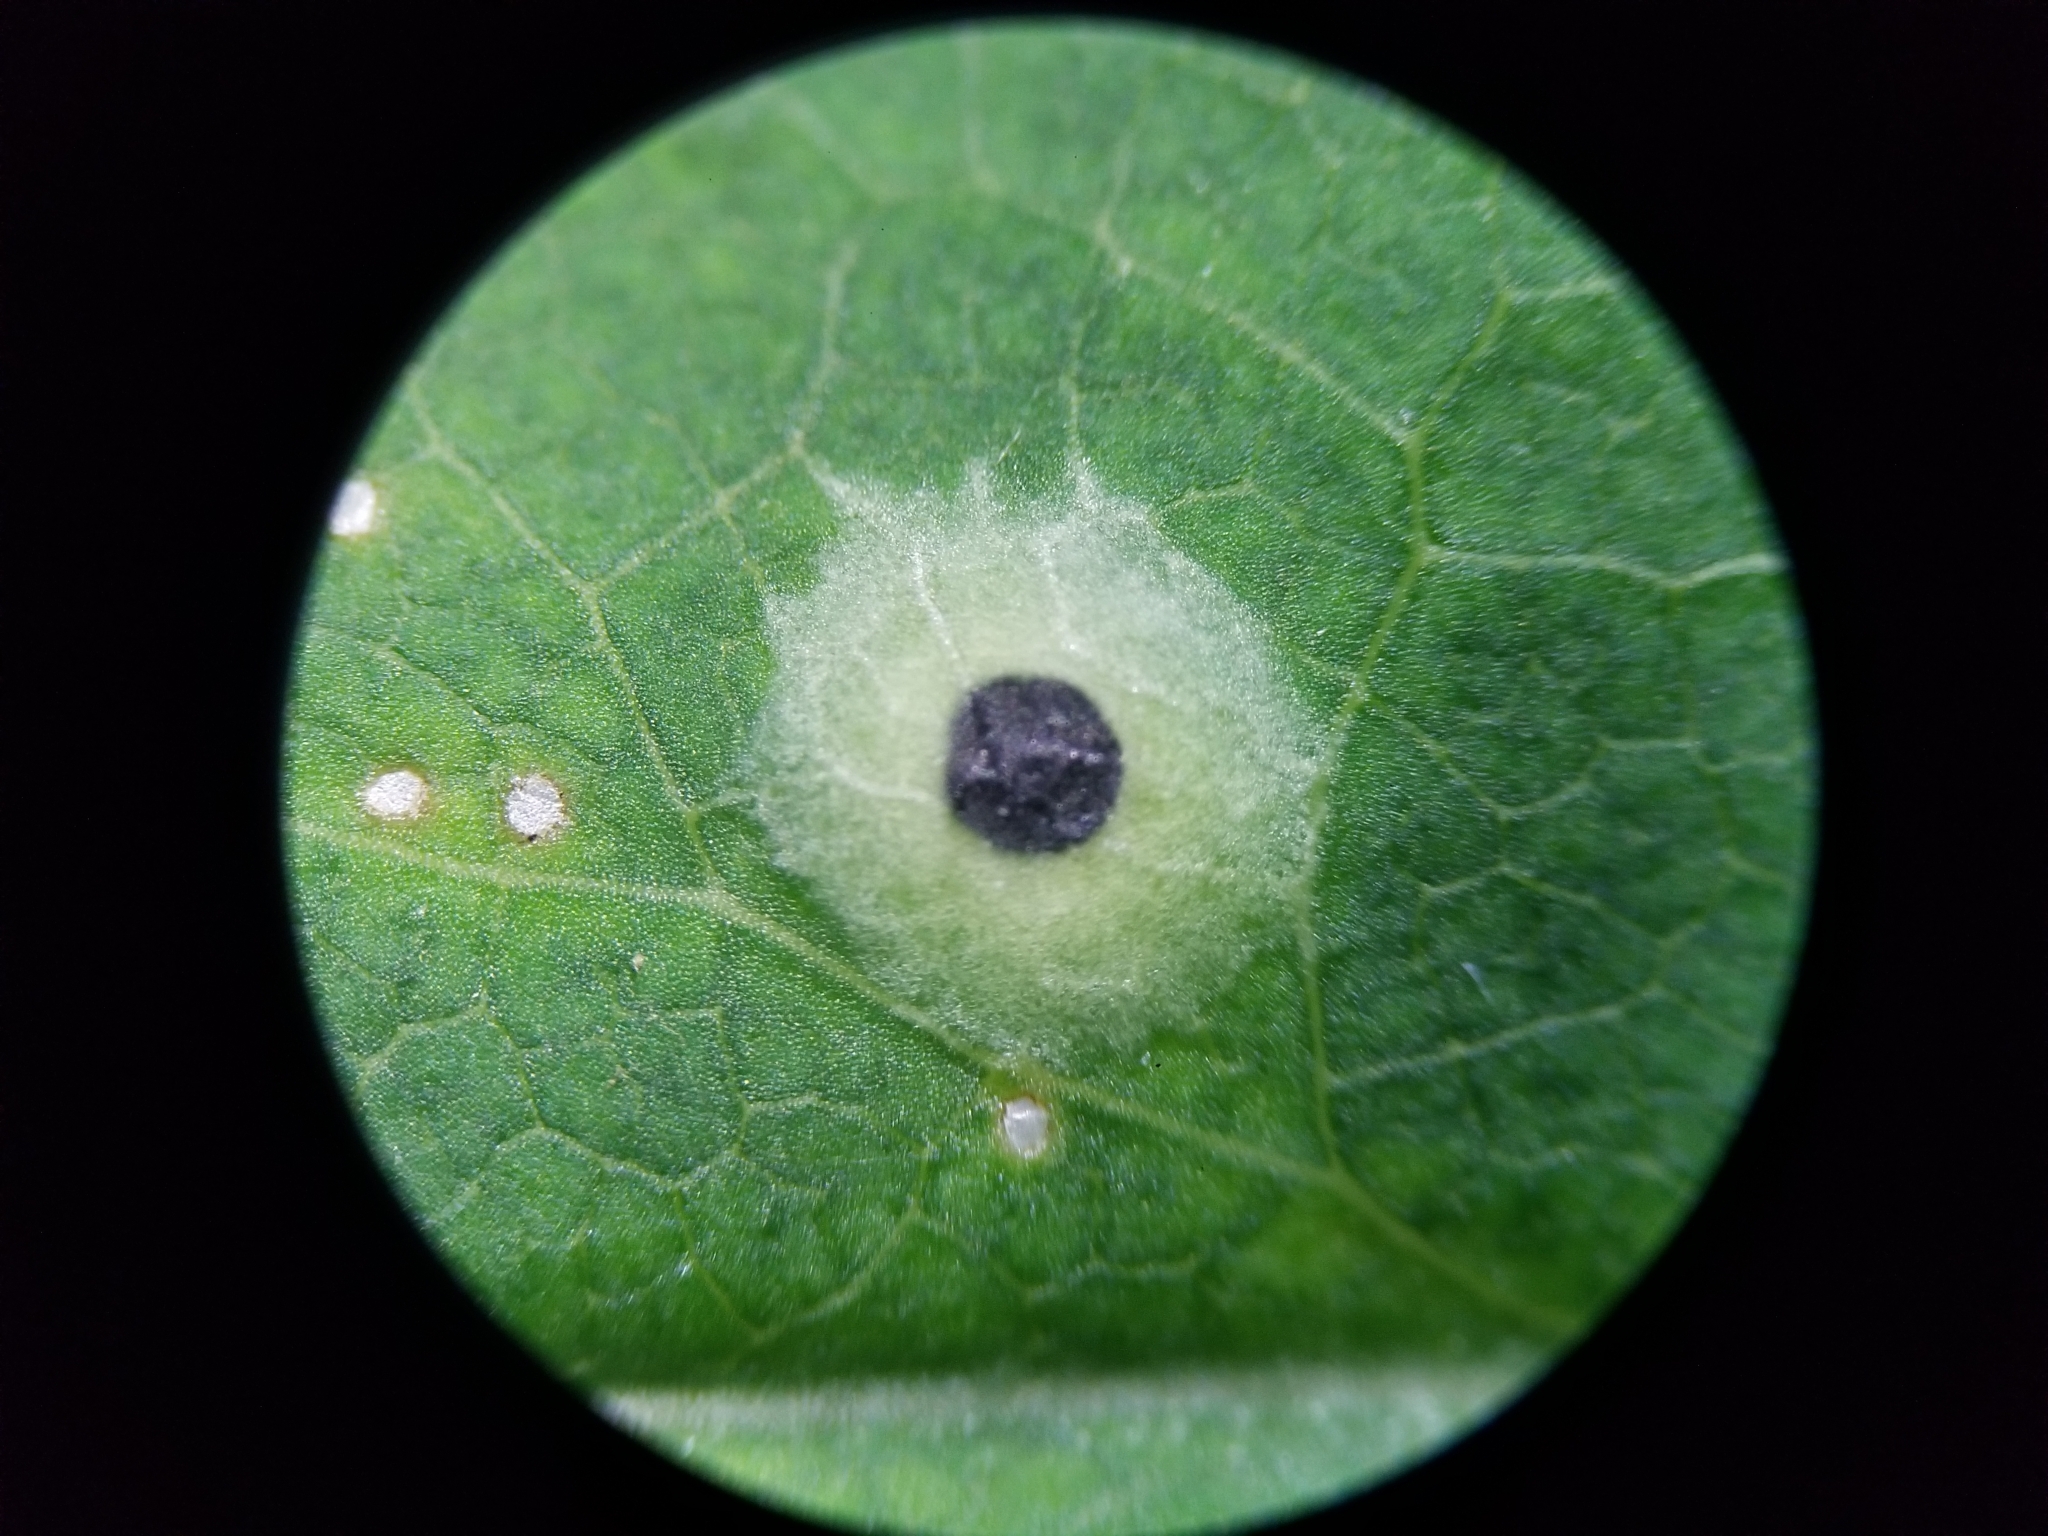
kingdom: Animalia
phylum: Arthropoda
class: Insecta
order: Diptera
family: Cecidomyiidae
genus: Asteromyia
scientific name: Asteromyia carbonifera
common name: Carbonifera goldenrod gall midge
